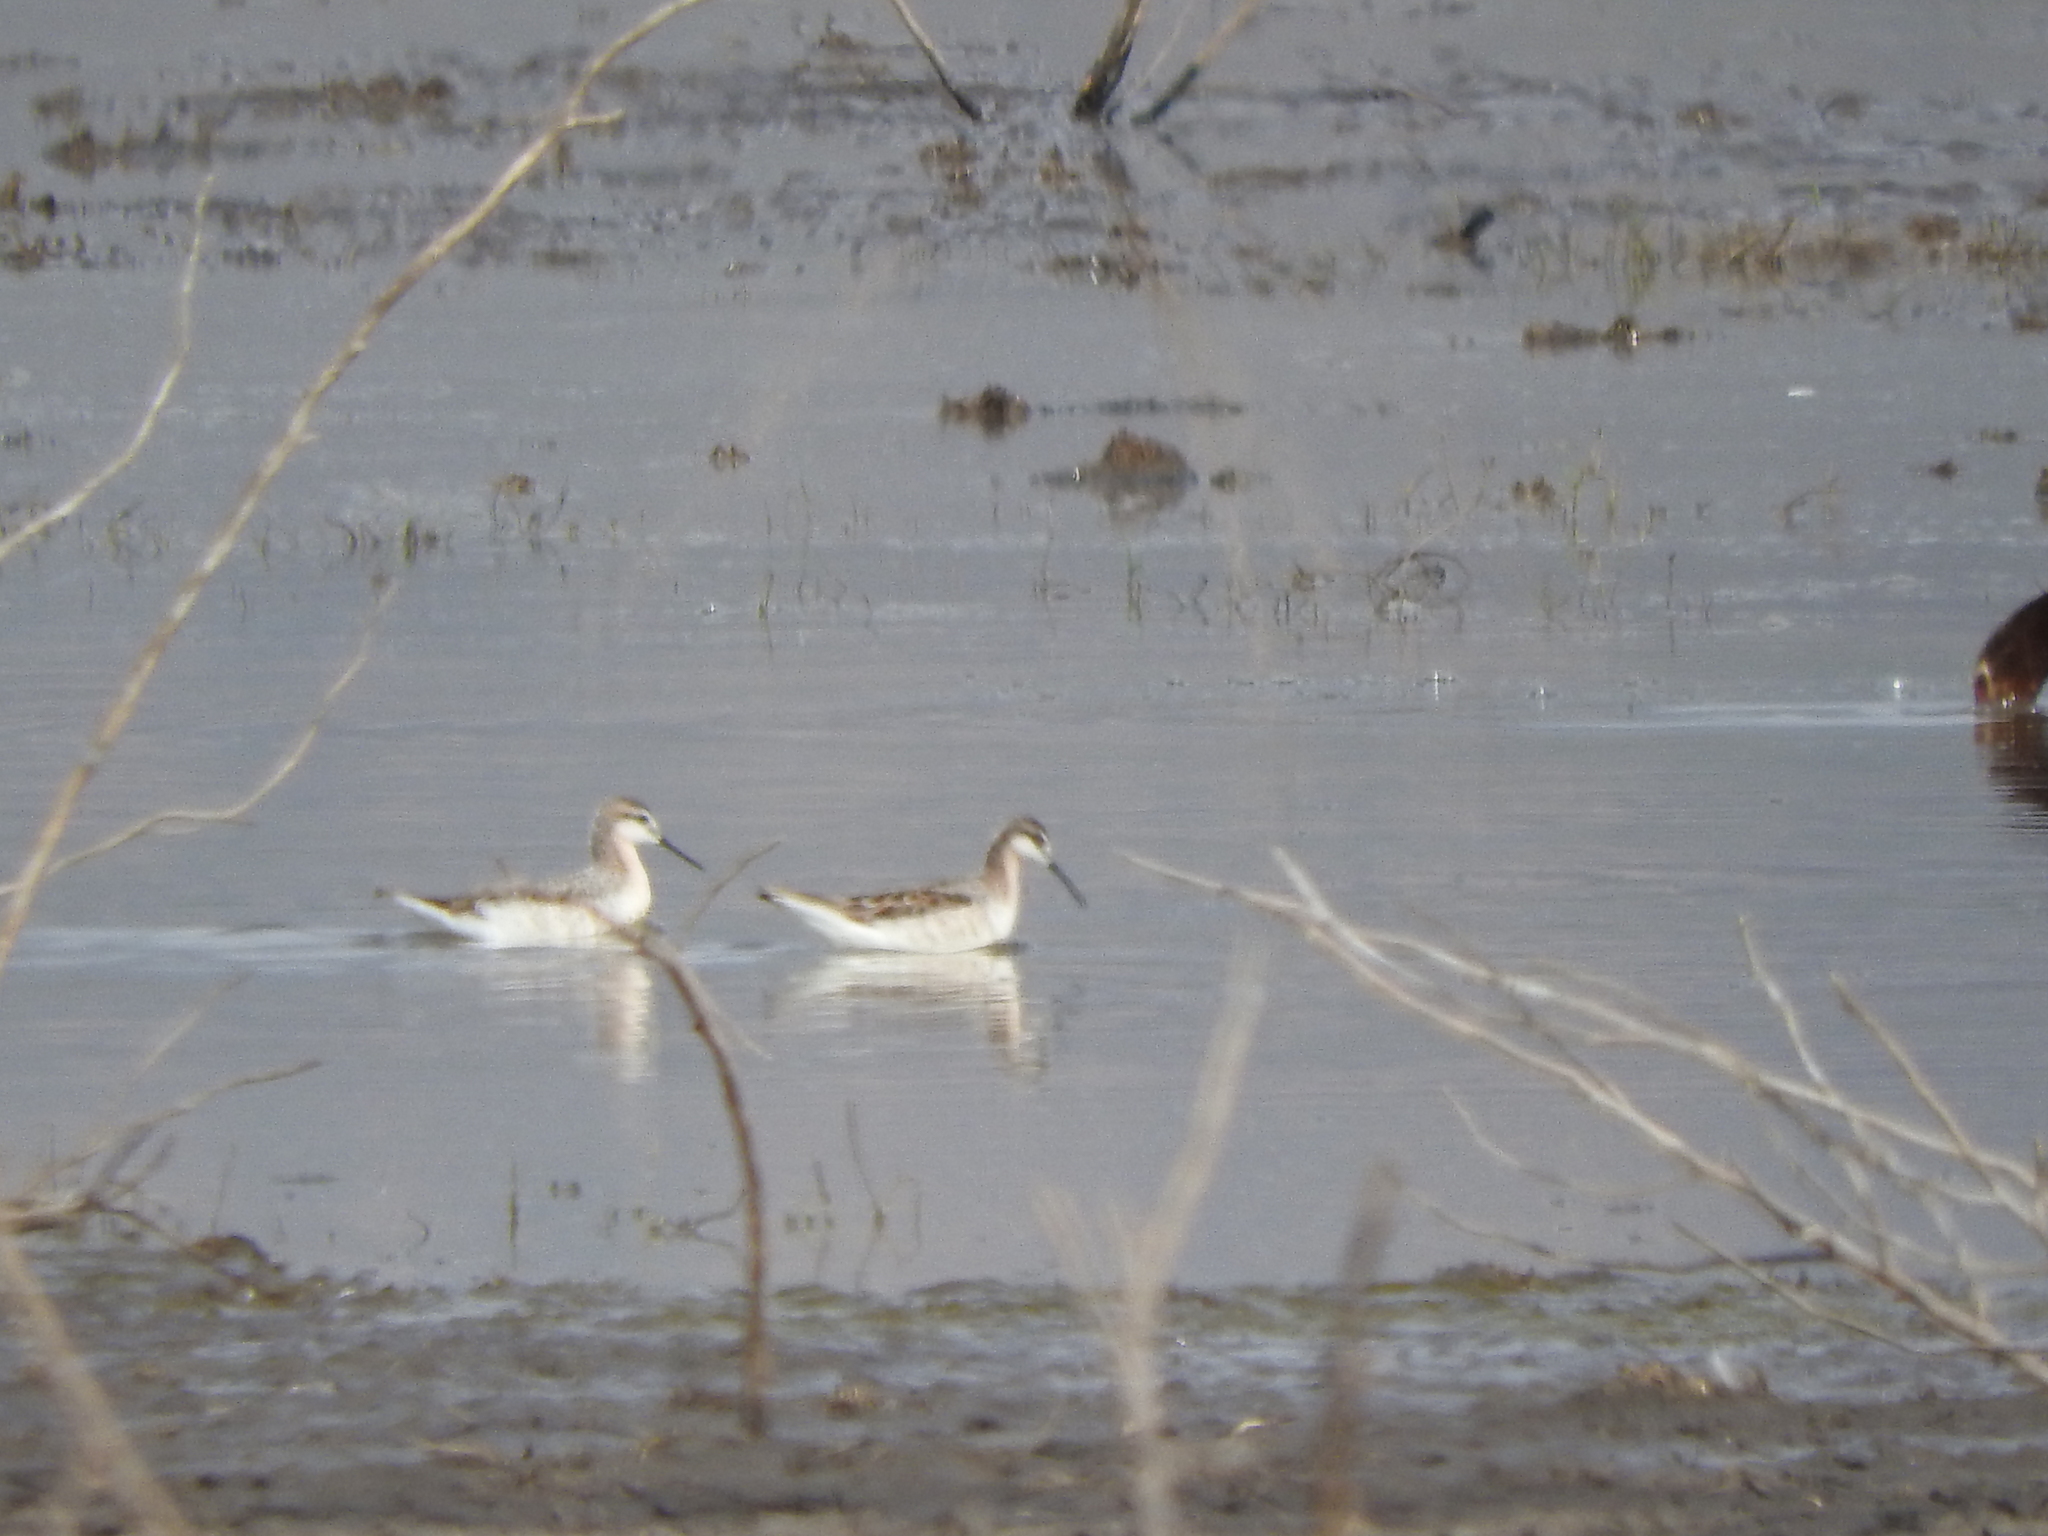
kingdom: Animalia
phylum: Chordata
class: Aves
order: Charadriiformes
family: Scolopacidae
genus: Phalaropus
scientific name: Phalaropus tricolor
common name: Wilson's phalarope
